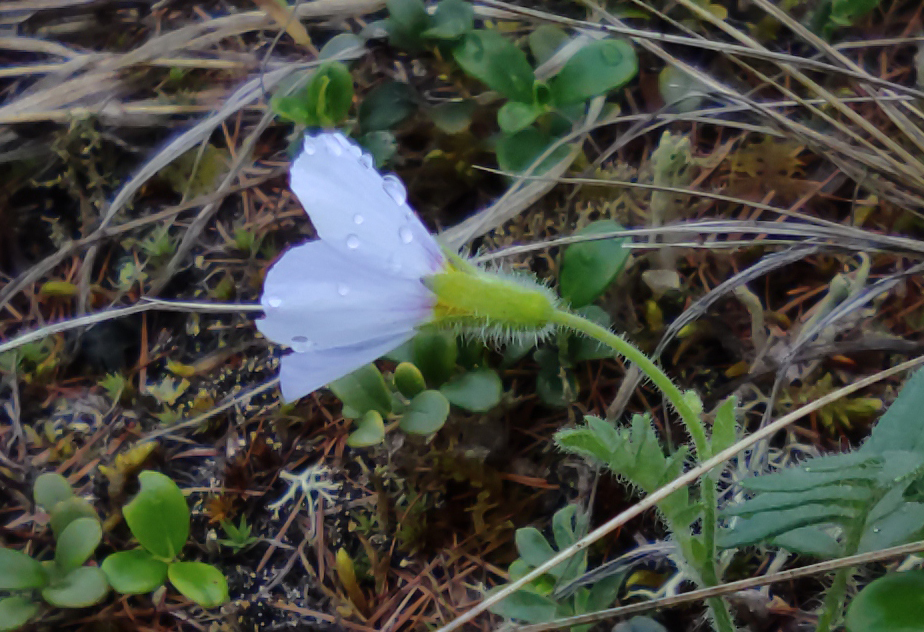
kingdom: Plantae
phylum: Tracheophyta
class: Magnoliopsida
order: Ericales
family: Polemoniaceae
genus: Polemonium
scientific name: Polemonium boreale
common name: Boreal jacob's-ladder
